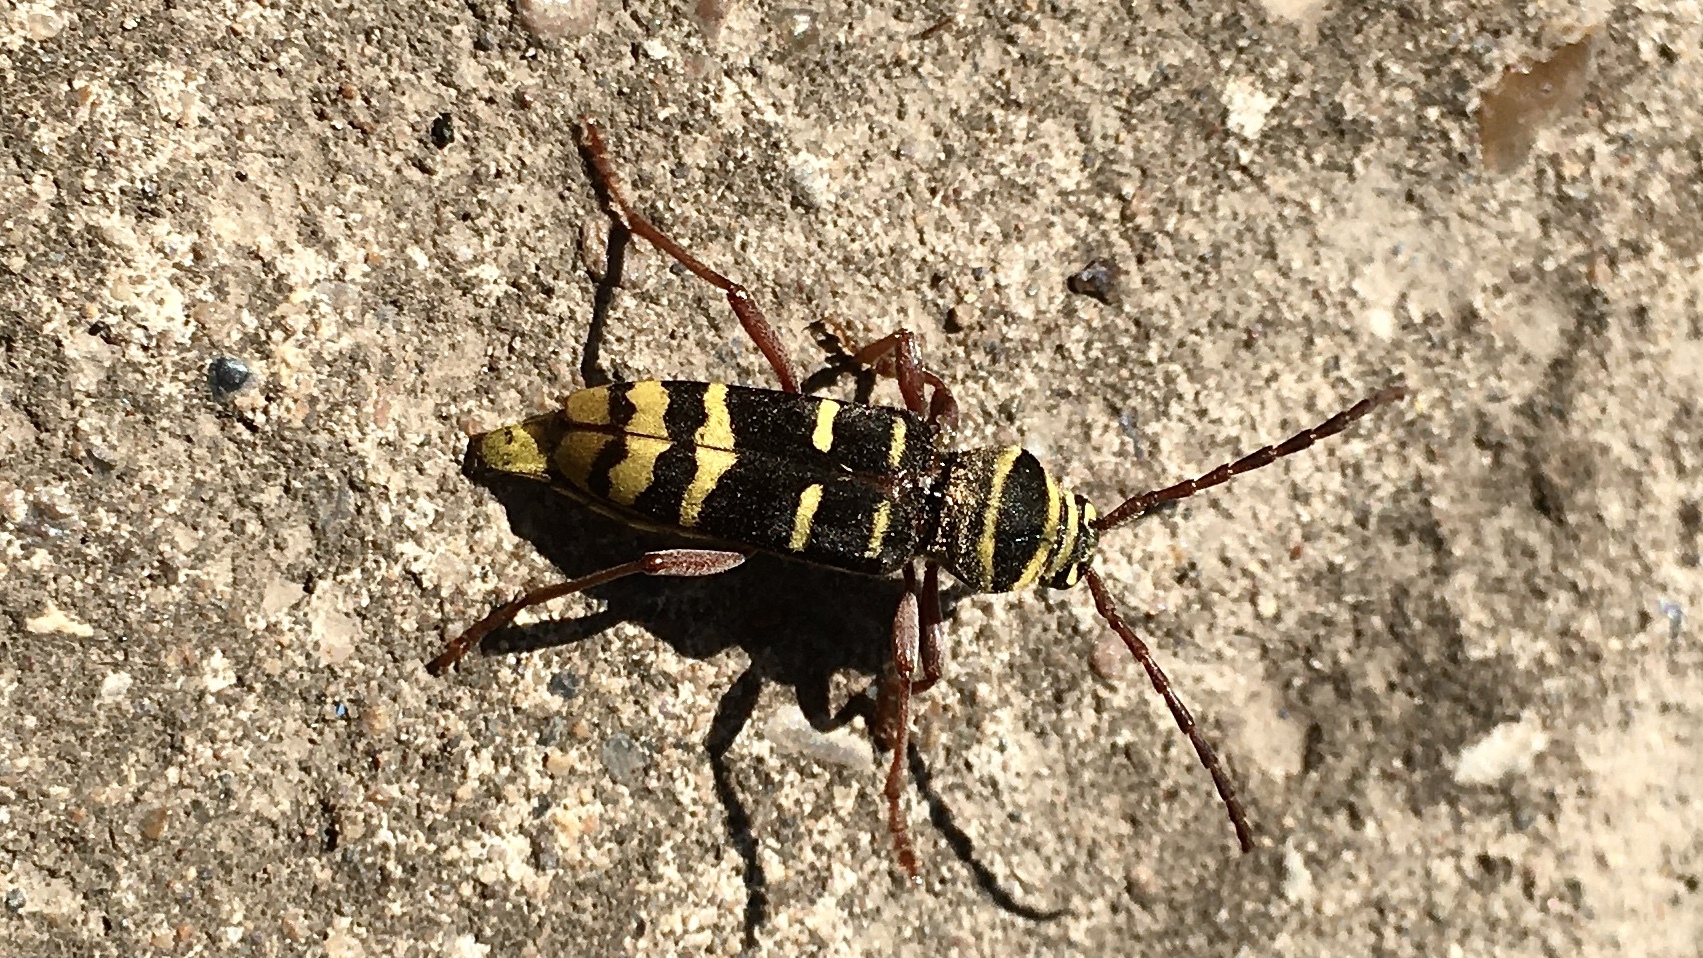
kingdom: Animalia
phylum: Arthropoda
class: Insecta
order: Coleoptera
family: Cerambycidae
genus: Plagionotus
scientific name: Plagionotus detritus
